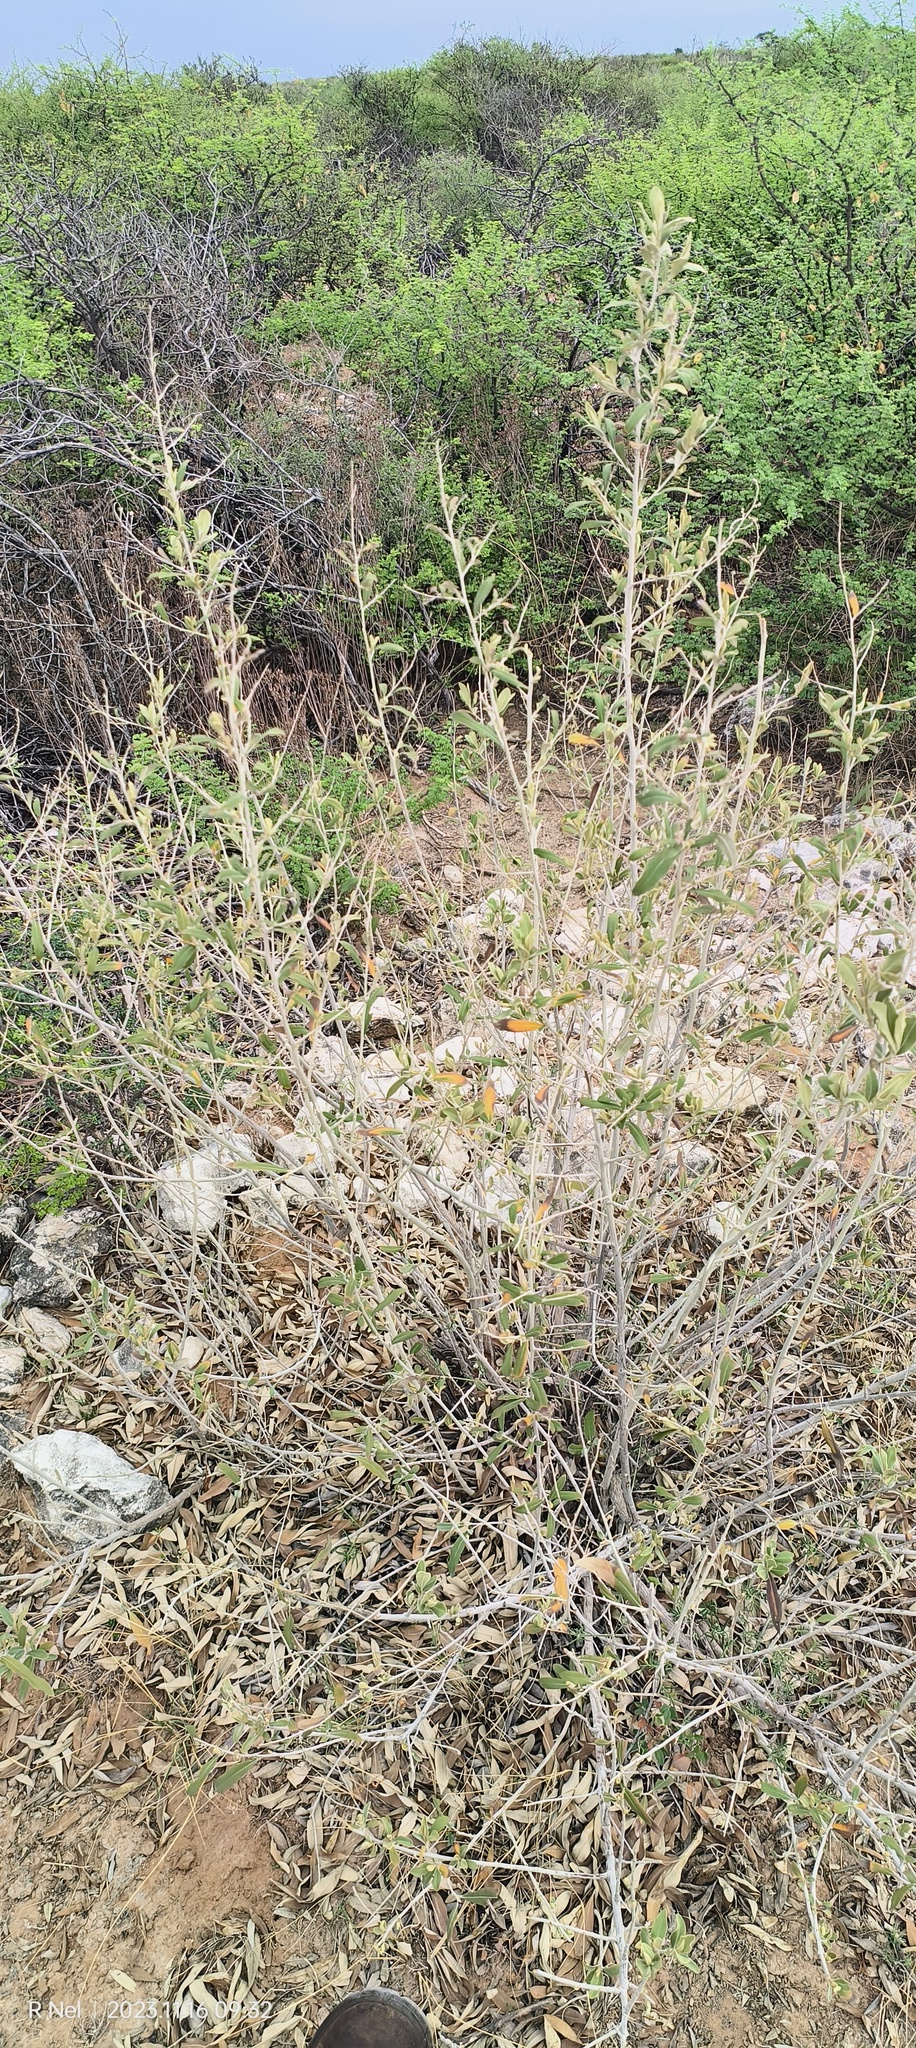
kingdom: Plantae
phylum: Tracheophyta
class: Magnoliopsida
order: Asterales
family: Asteraceae
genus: Tarchonanthus
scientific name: Tarchonanthus camphoratus
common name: Camphorwood
